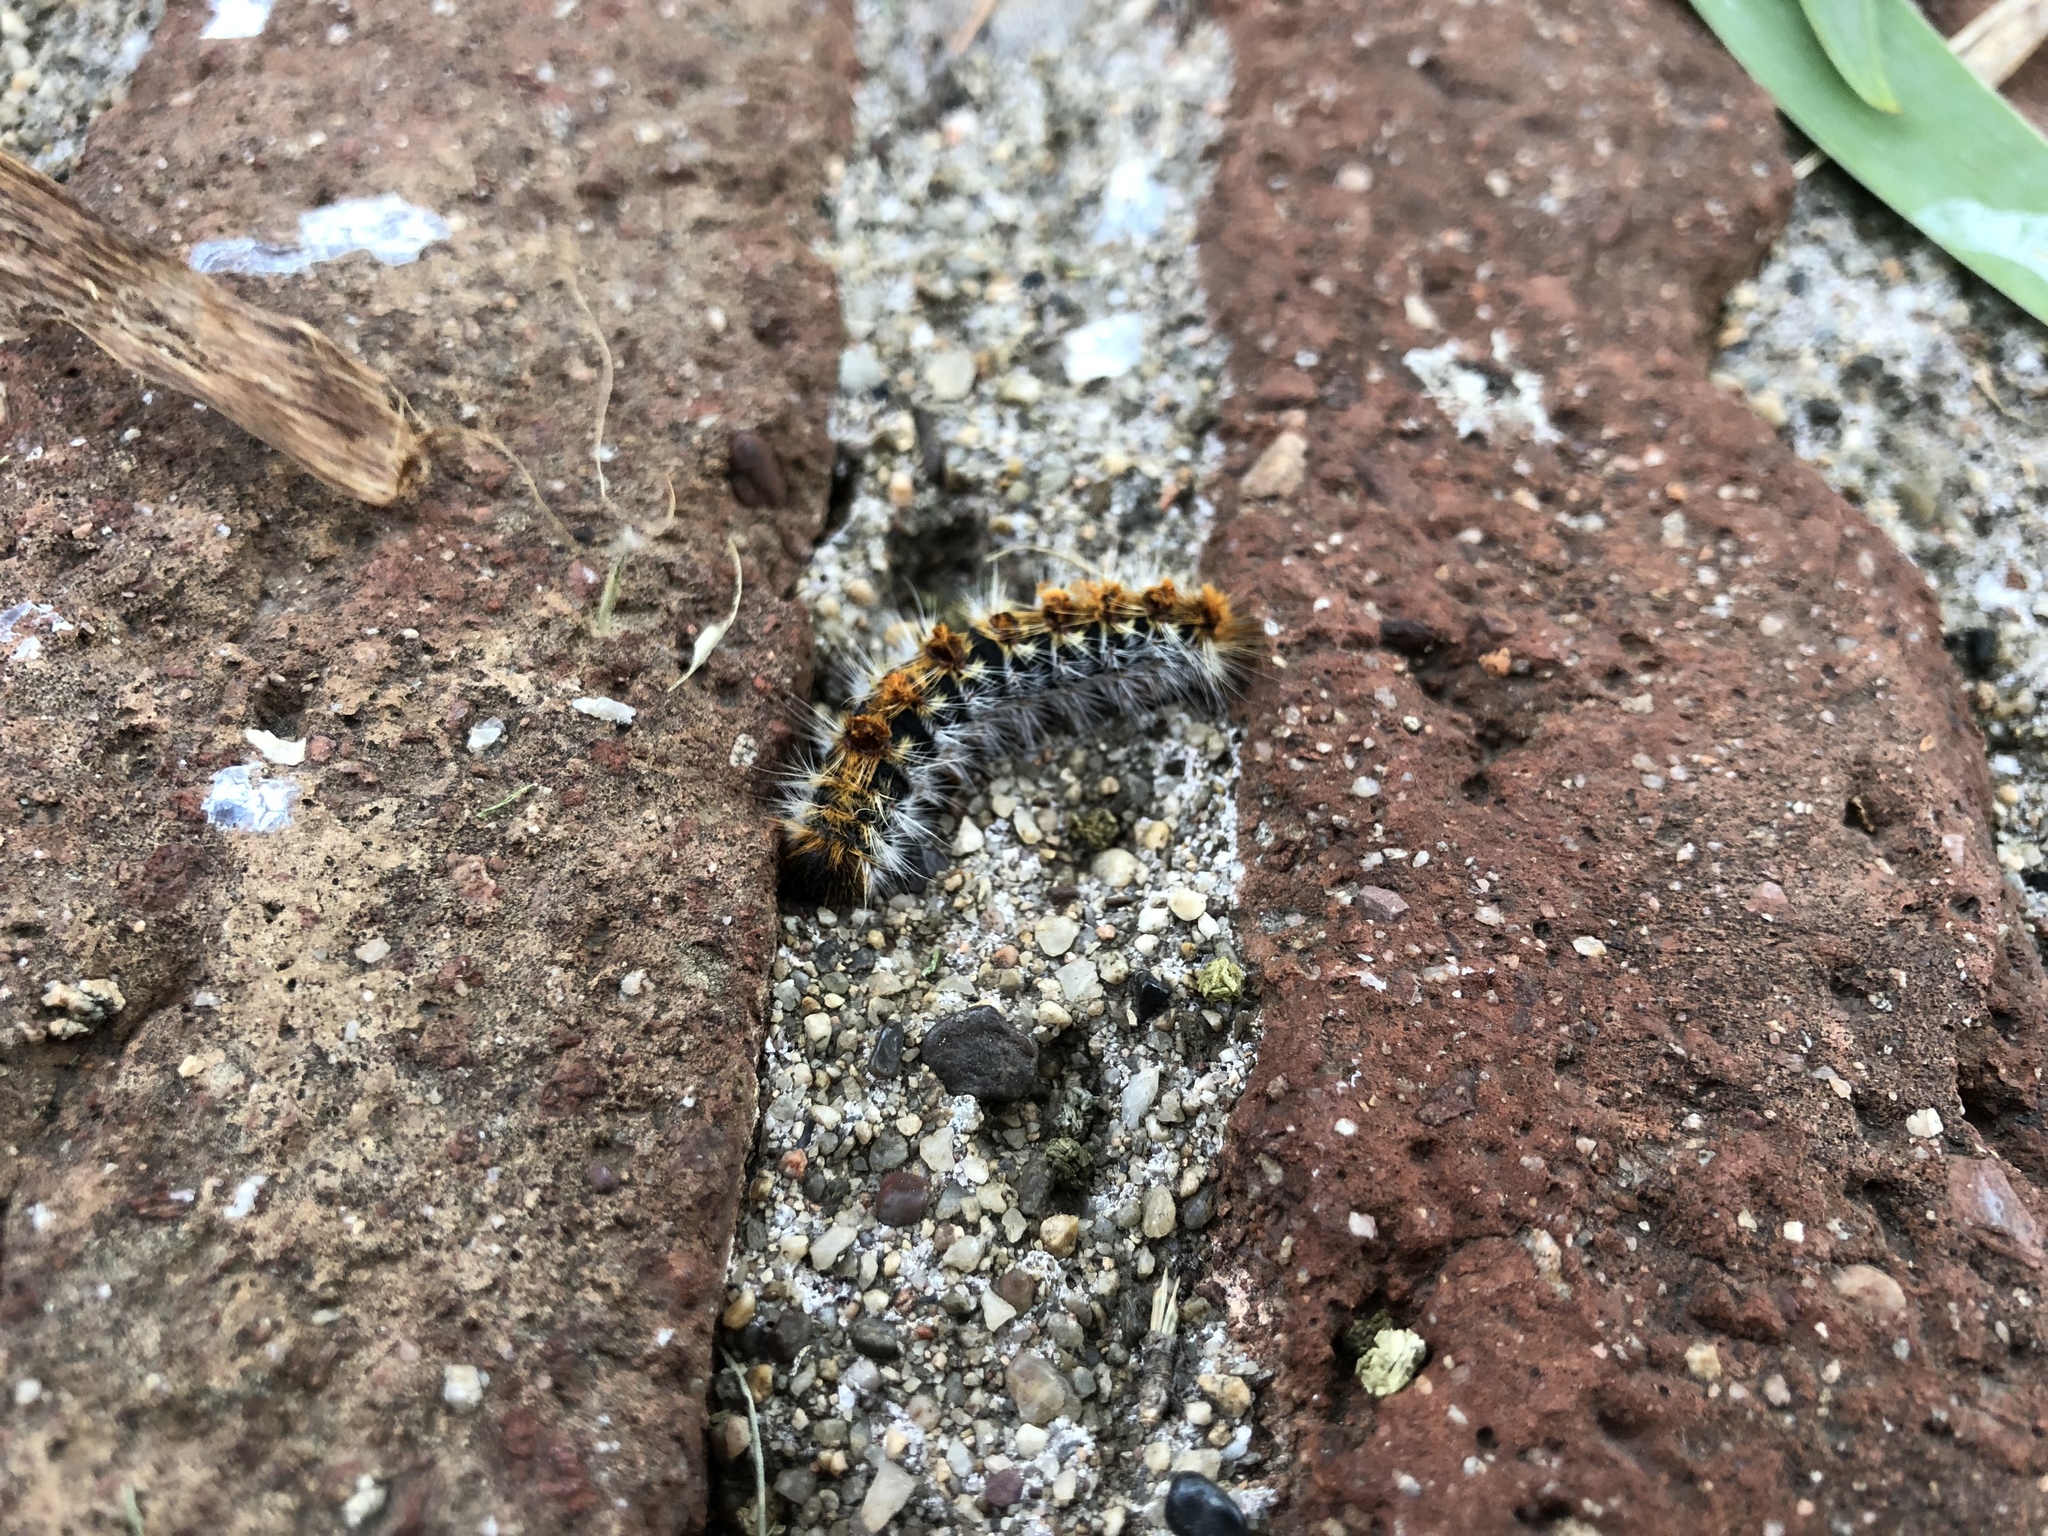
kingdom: Animalia
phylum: Arthropoda
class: Insecta
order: Lepidoptera
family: Notodontidae
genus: Thaumetopoea
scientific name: Thaumetopoea pityocampa
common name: Pine processionary
